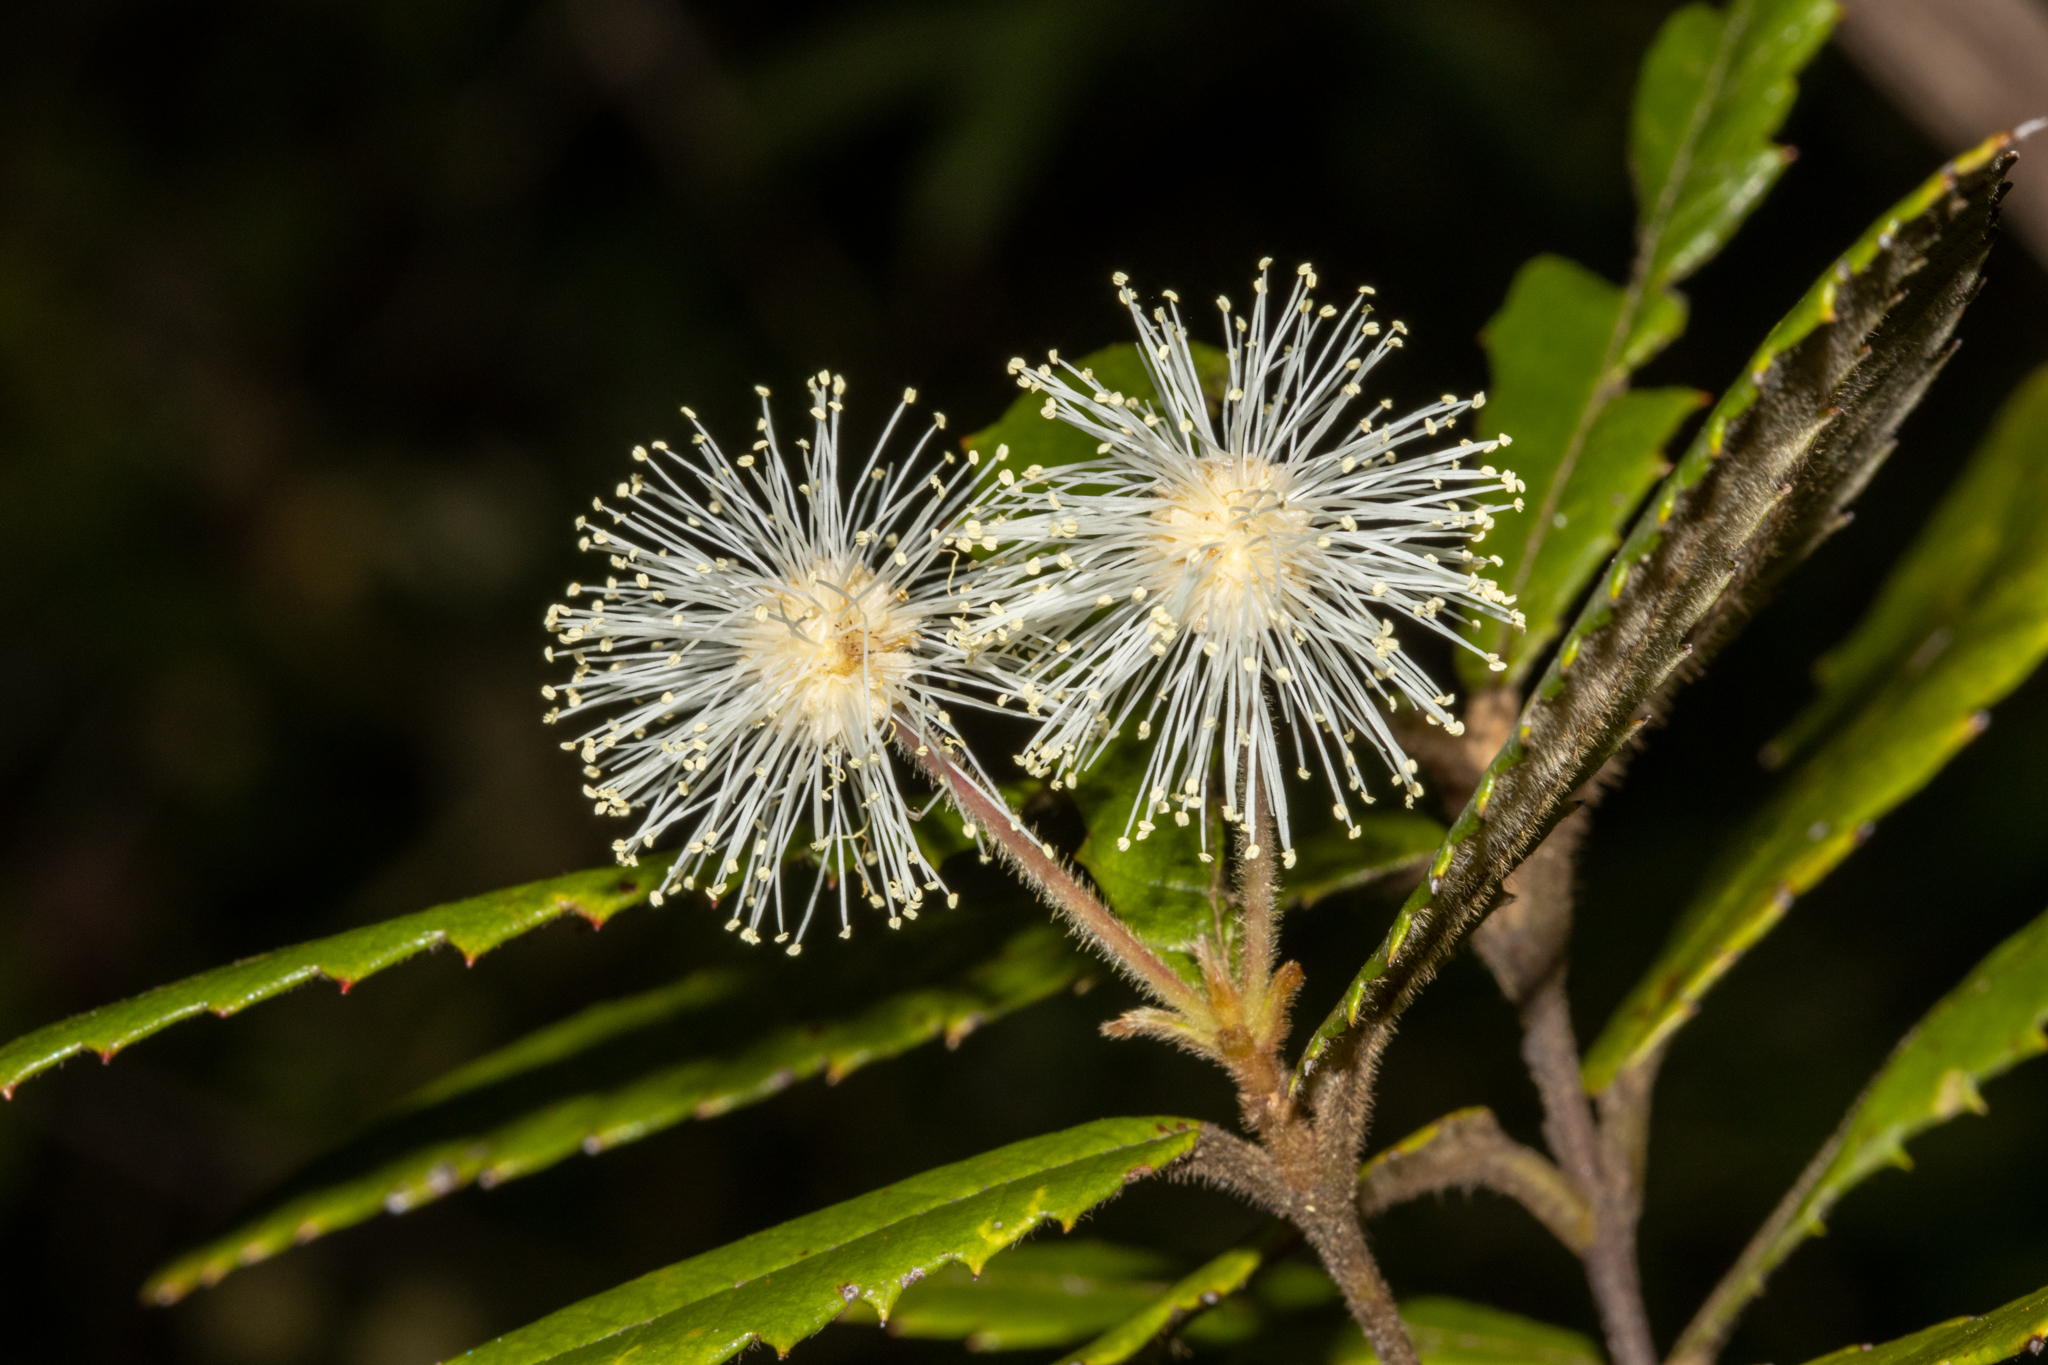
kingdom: Plantae
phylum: Tracheophyta
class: Magnoliopsida
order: Oxalidales
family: Cunoniaceae
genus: Callicoma
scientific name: Callicoma serratifolia
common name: Black wattle
